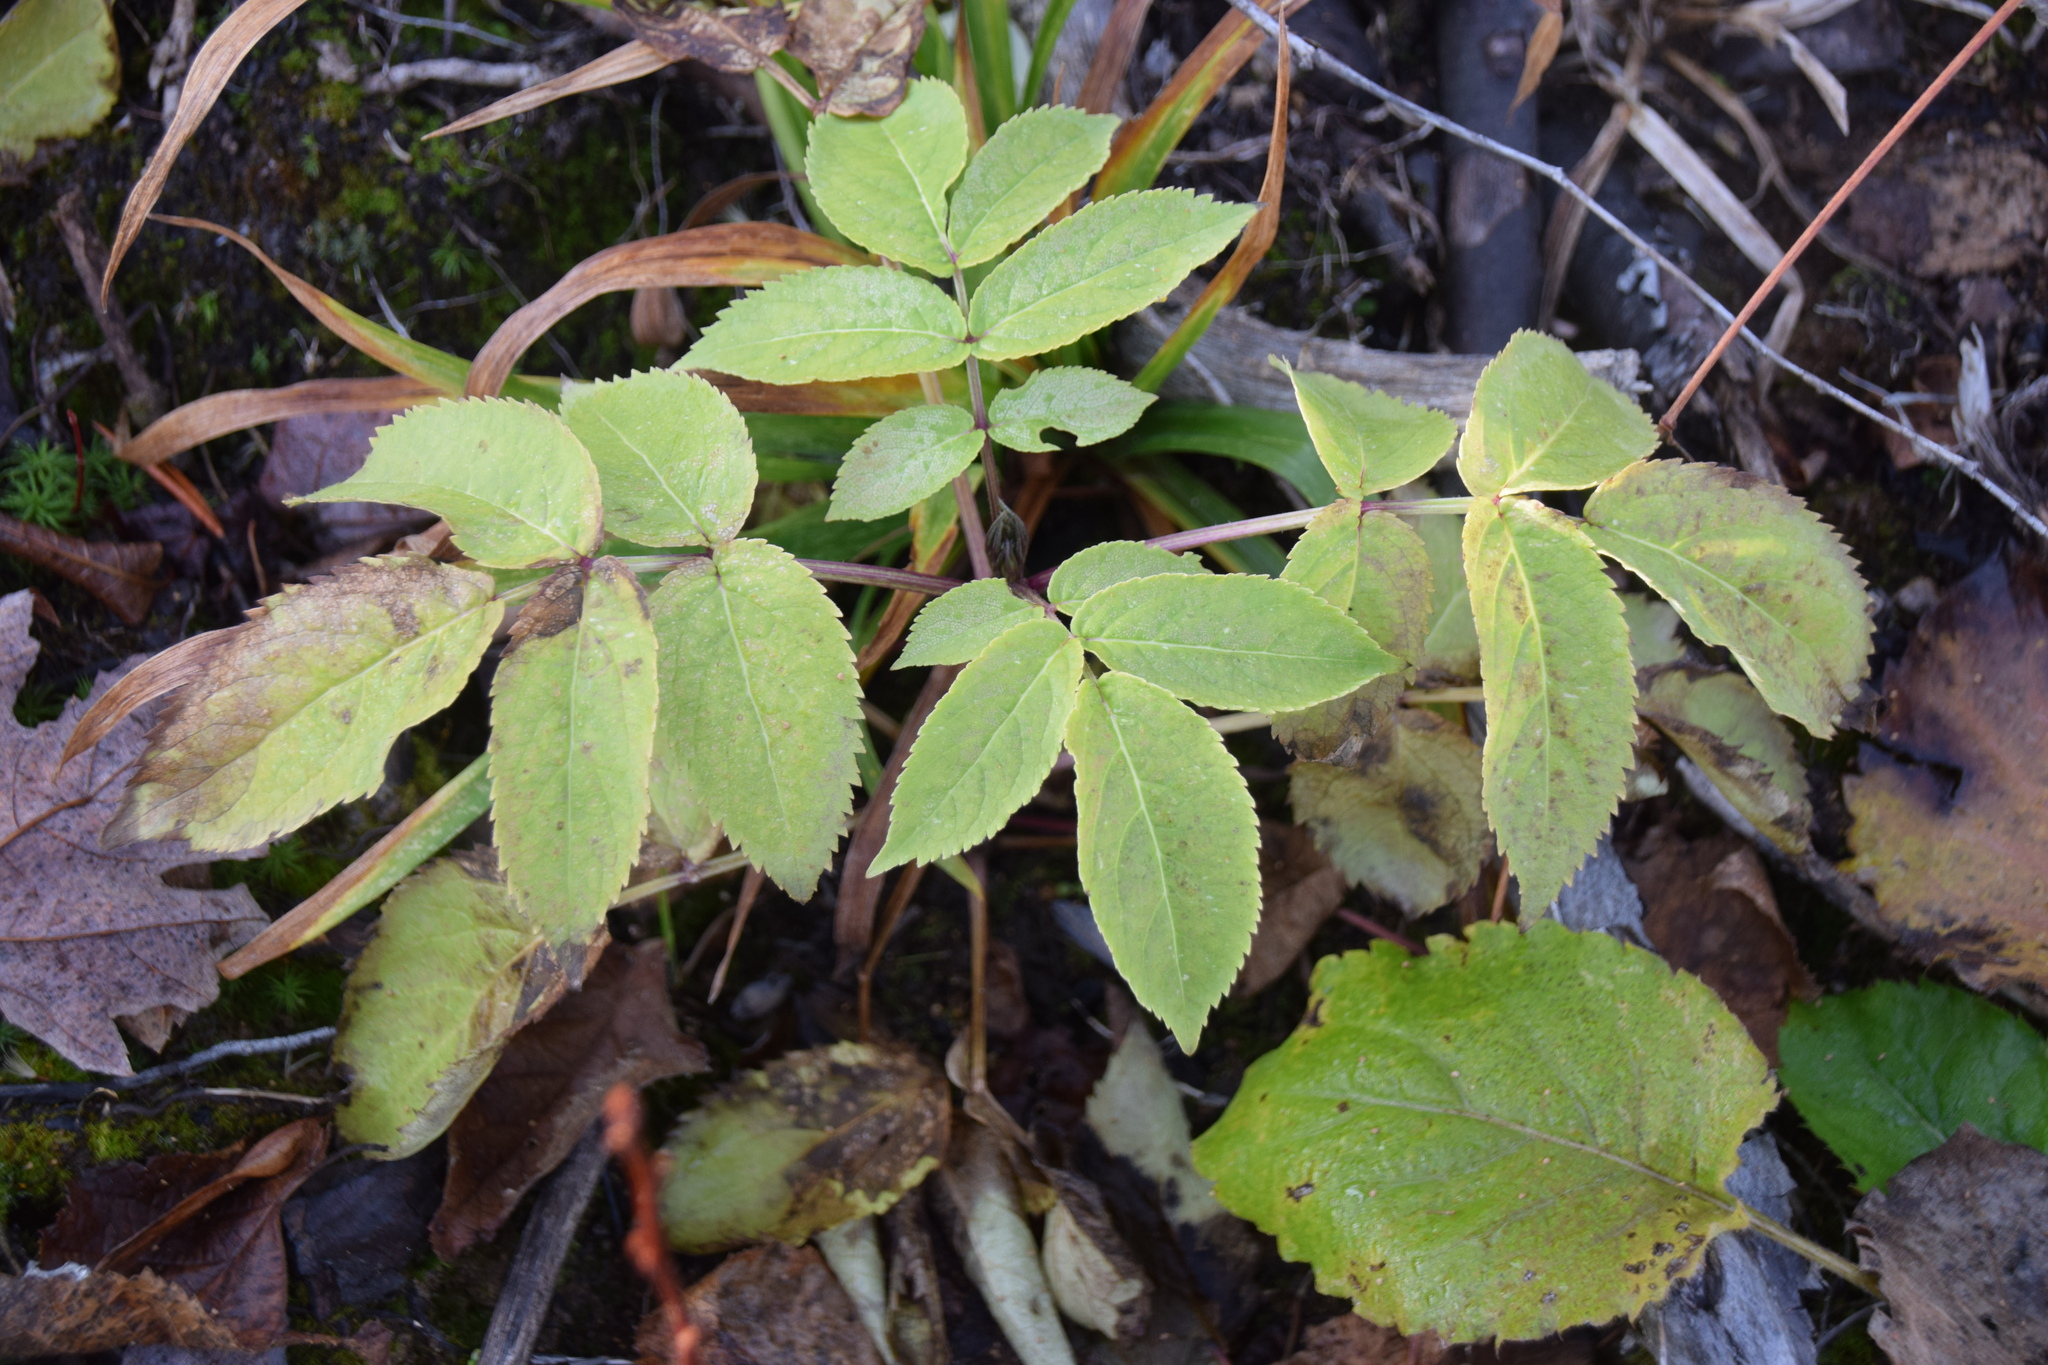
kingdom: Plantae
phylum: Tracheophyta
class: Magnoliopsida
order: Dipsacales
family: Viburnaceae
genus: Sambucus
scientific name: Sambucus racemosa
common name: Red-berried elder
